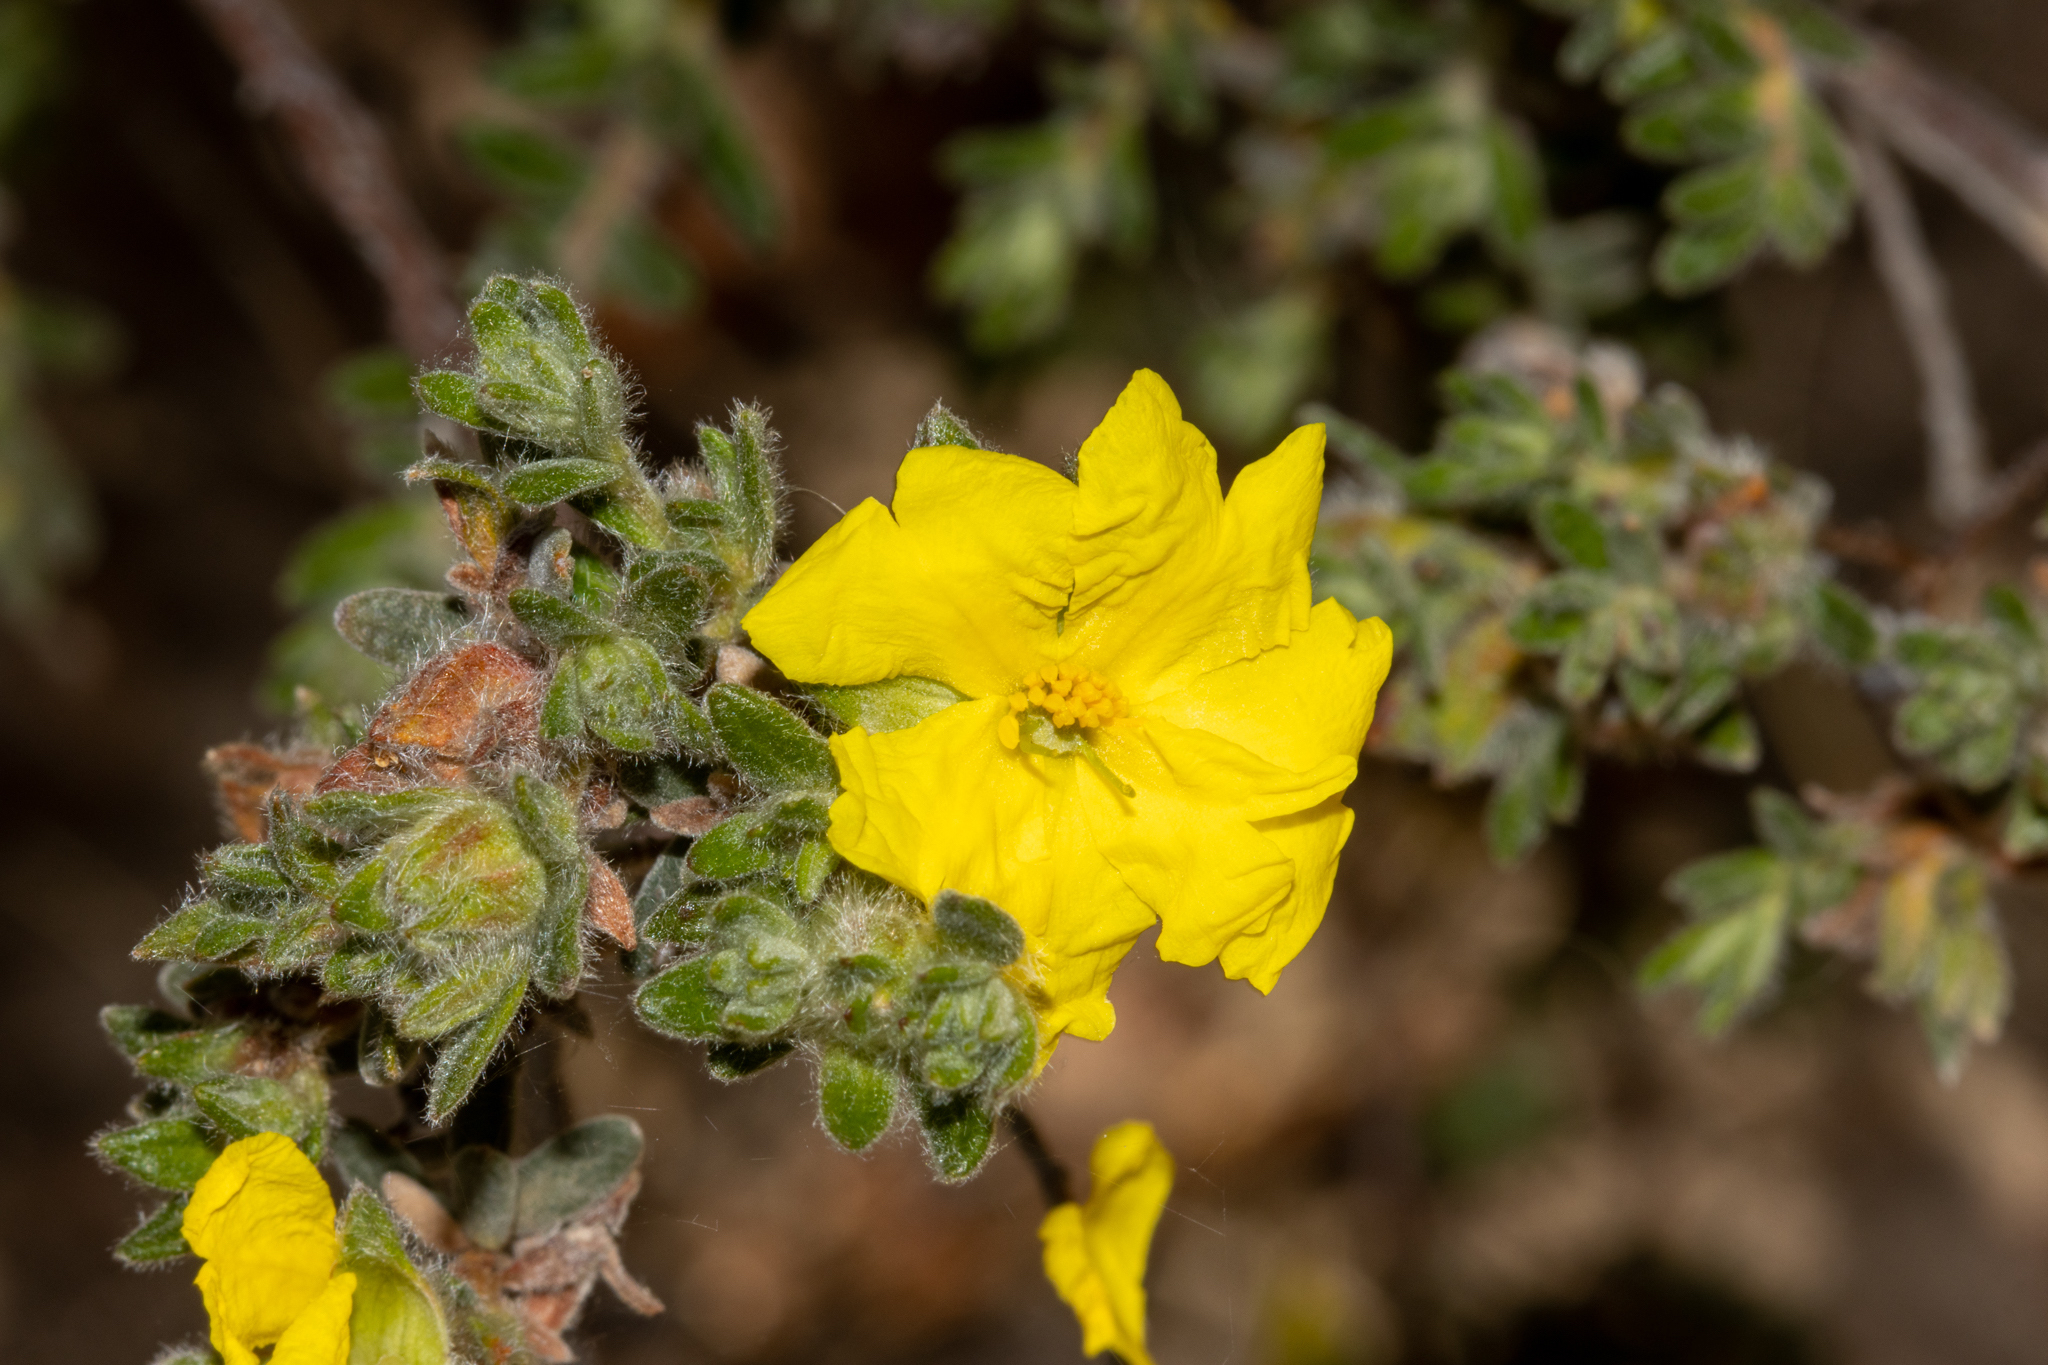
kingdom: Plantae
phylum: Tracheophyta
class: Magnoliopsida
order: Dilleniales
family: Dilleniaceae
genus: Hibbertia
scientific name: Hibbertia crinita
